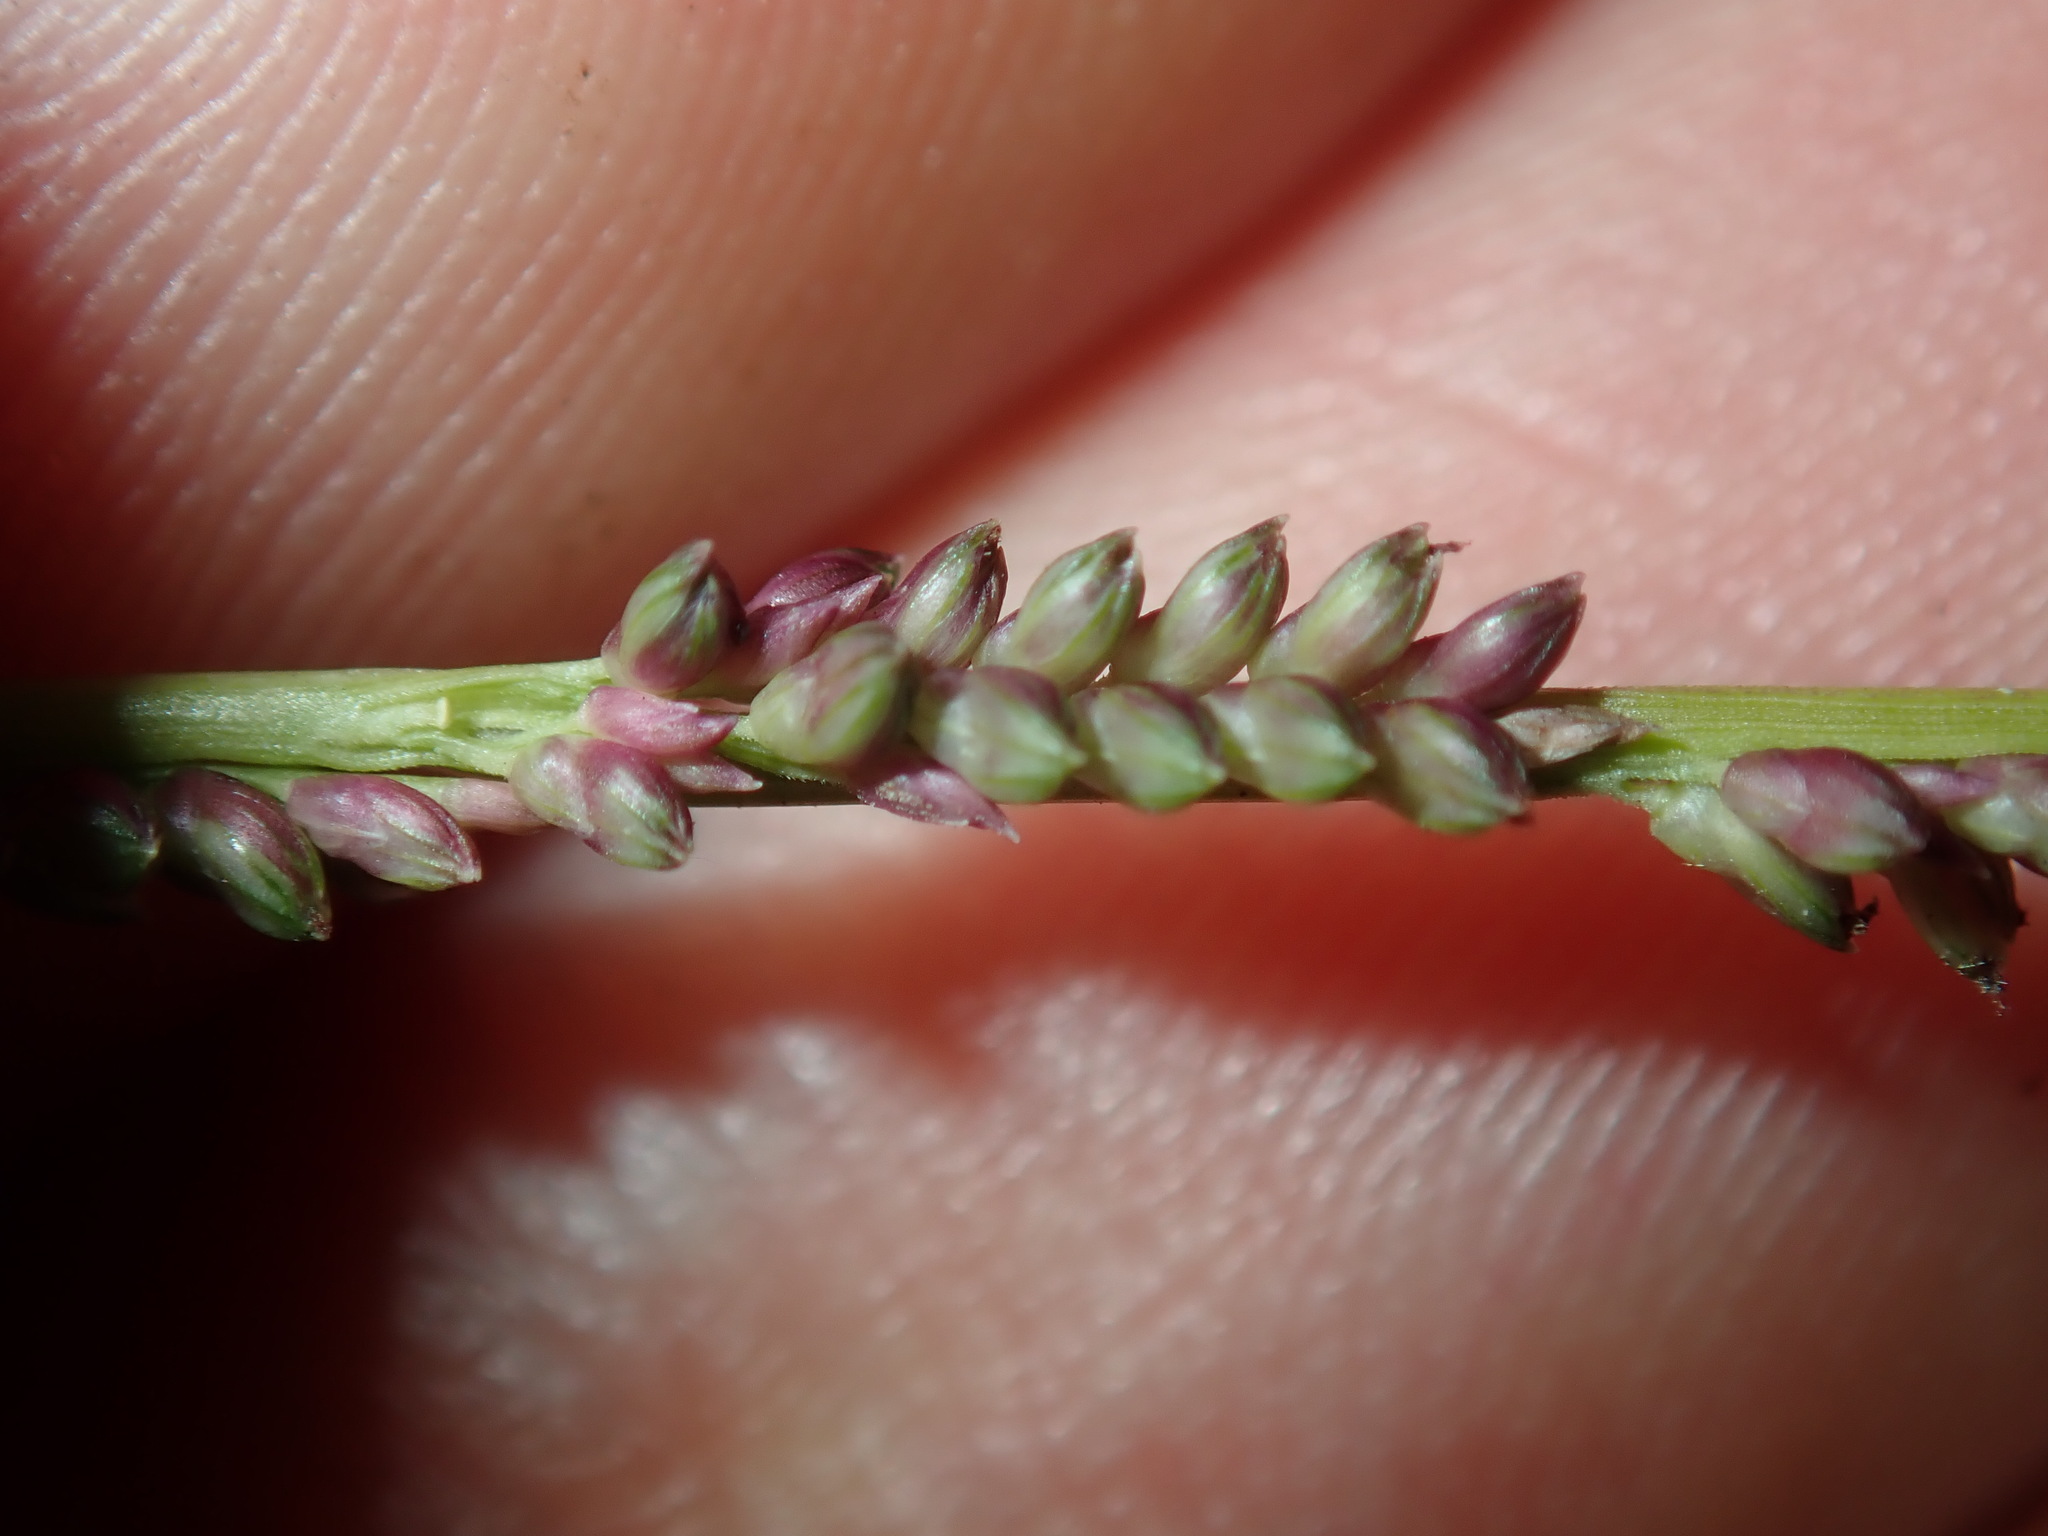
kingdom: Plantae
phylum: Tracheophyta
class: Liliopsida
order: Poales
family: Poaceae
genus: Setaria
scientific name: Setaria distans
